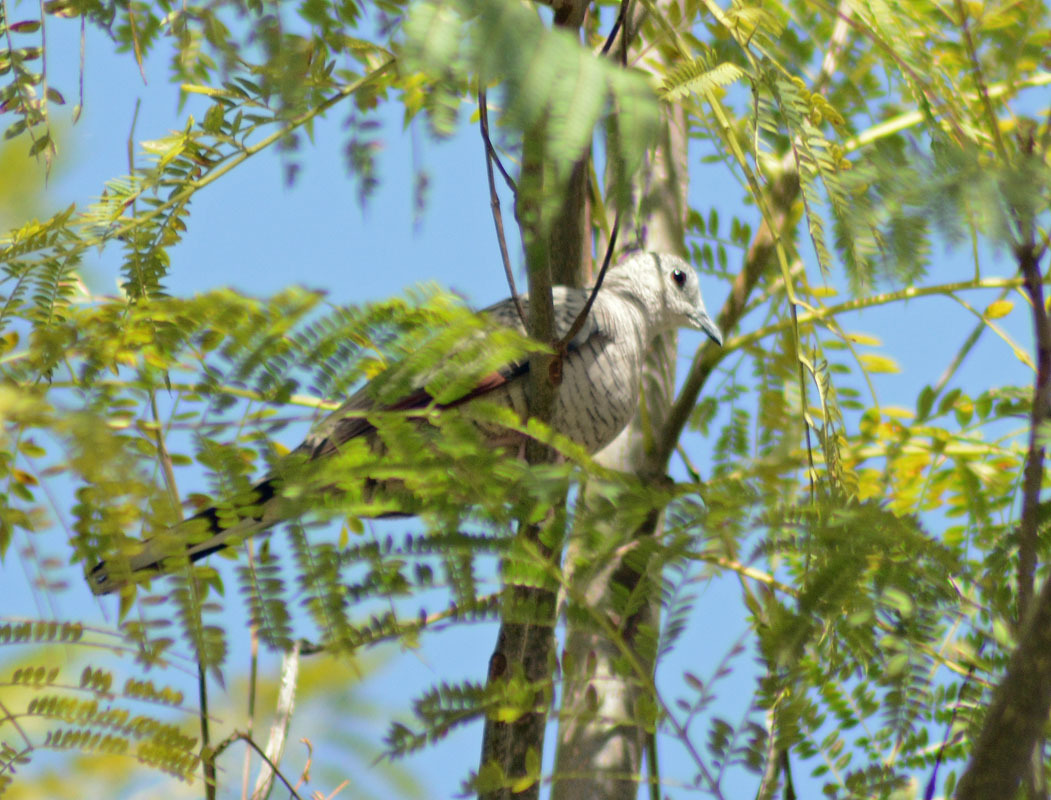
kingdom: Animalia
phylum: Chordata
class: Aves
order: Columbiformes
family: Columbidae
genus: Columbina
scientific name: Columbina inca
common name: Inca dove
